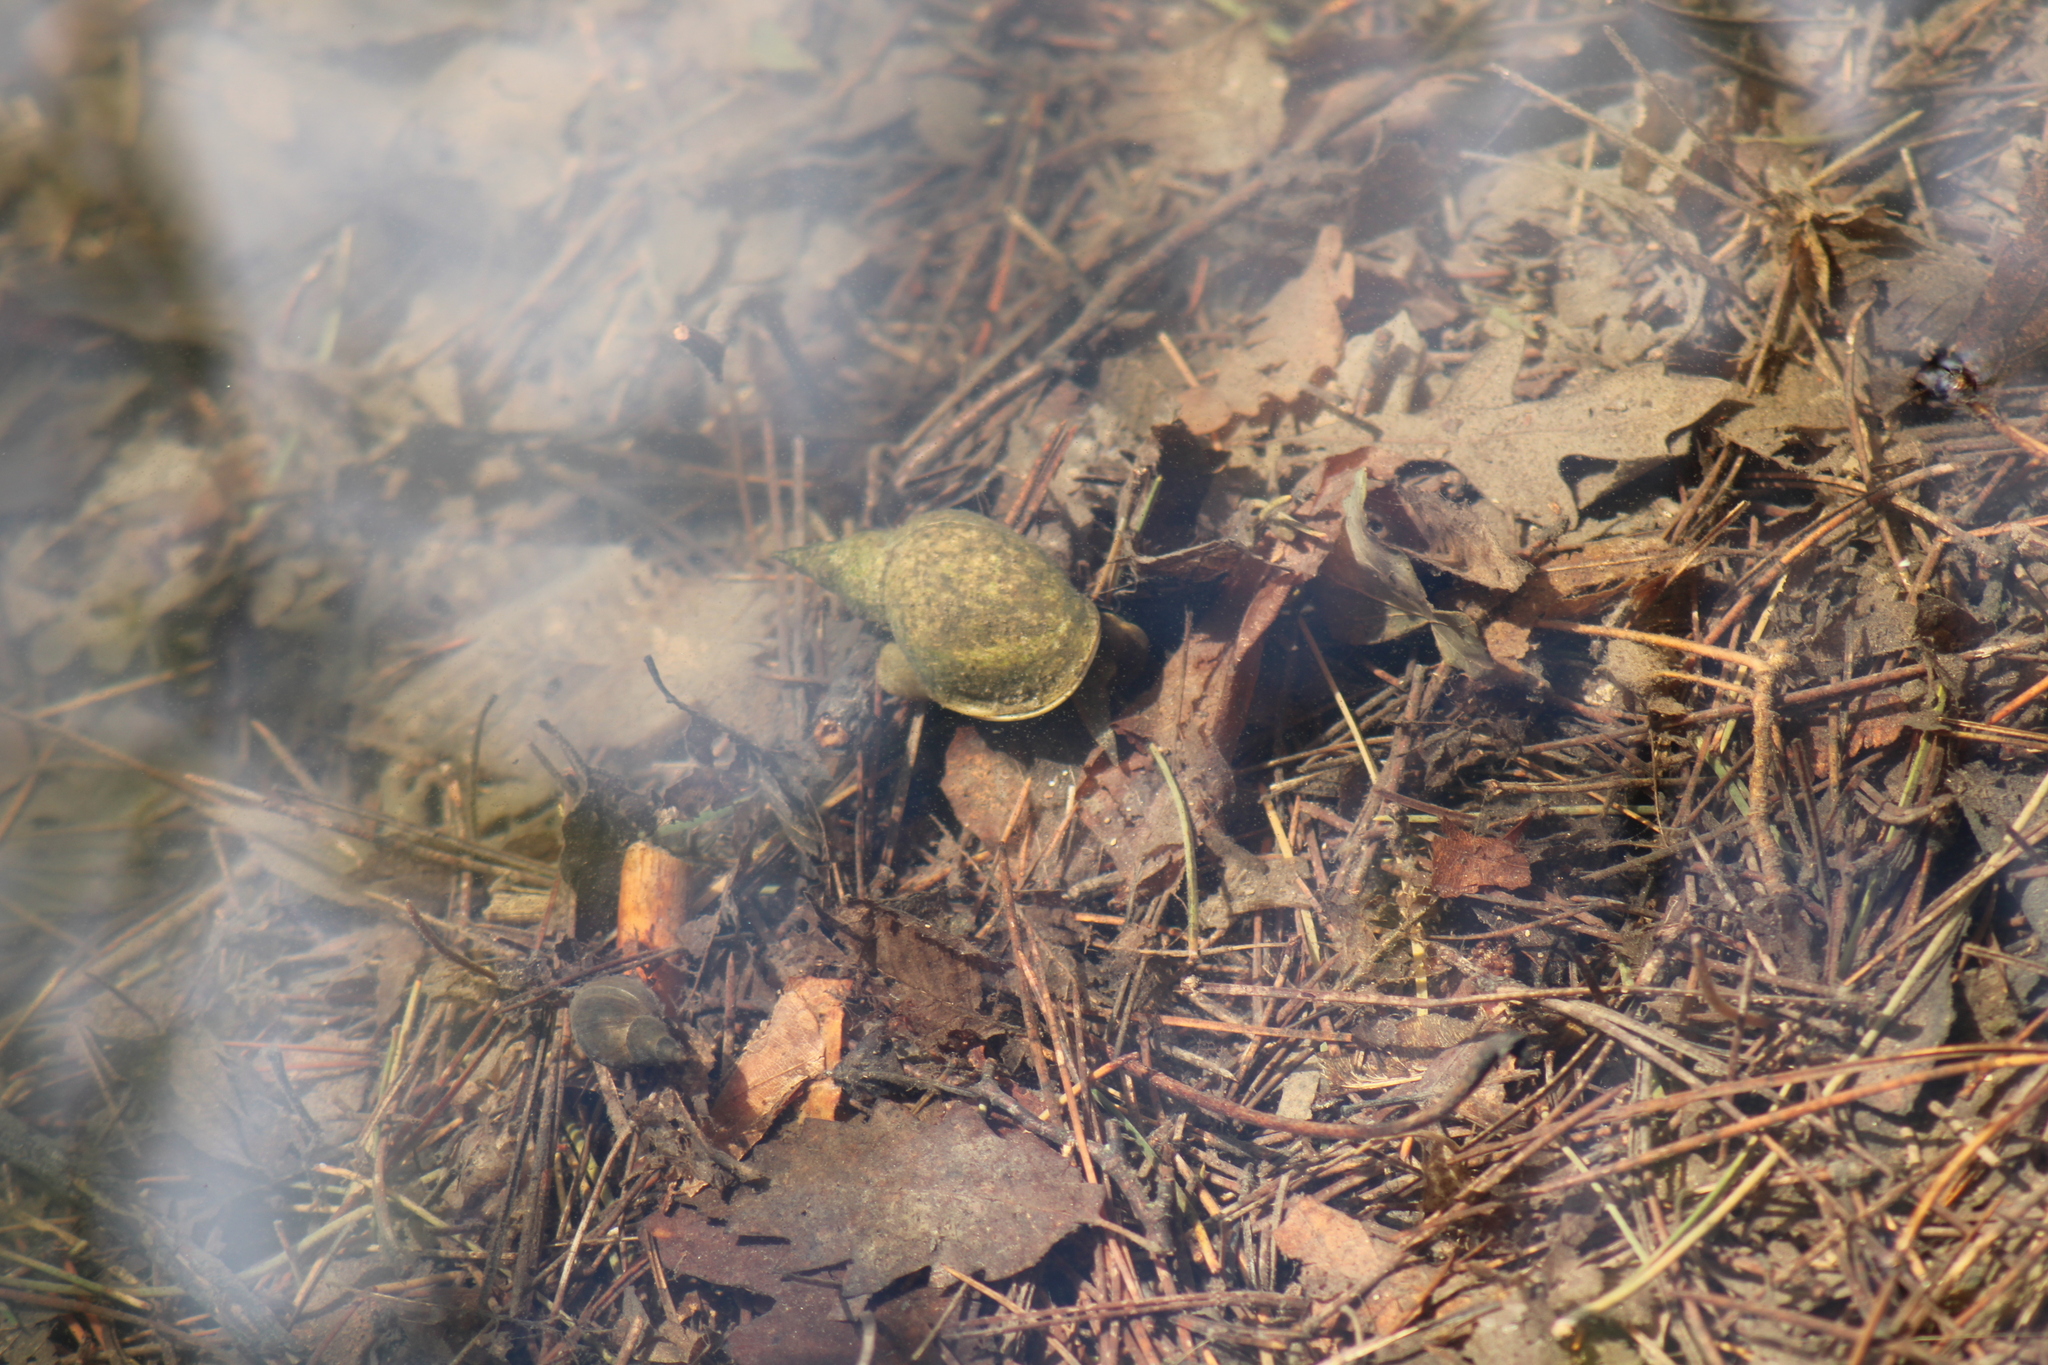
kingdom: Animalia
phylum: Mollusca
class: Gastropoda
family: Lymnaeidae
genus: Lymnaea
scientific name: Lymnaea stagnalis
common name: Great pond snail
